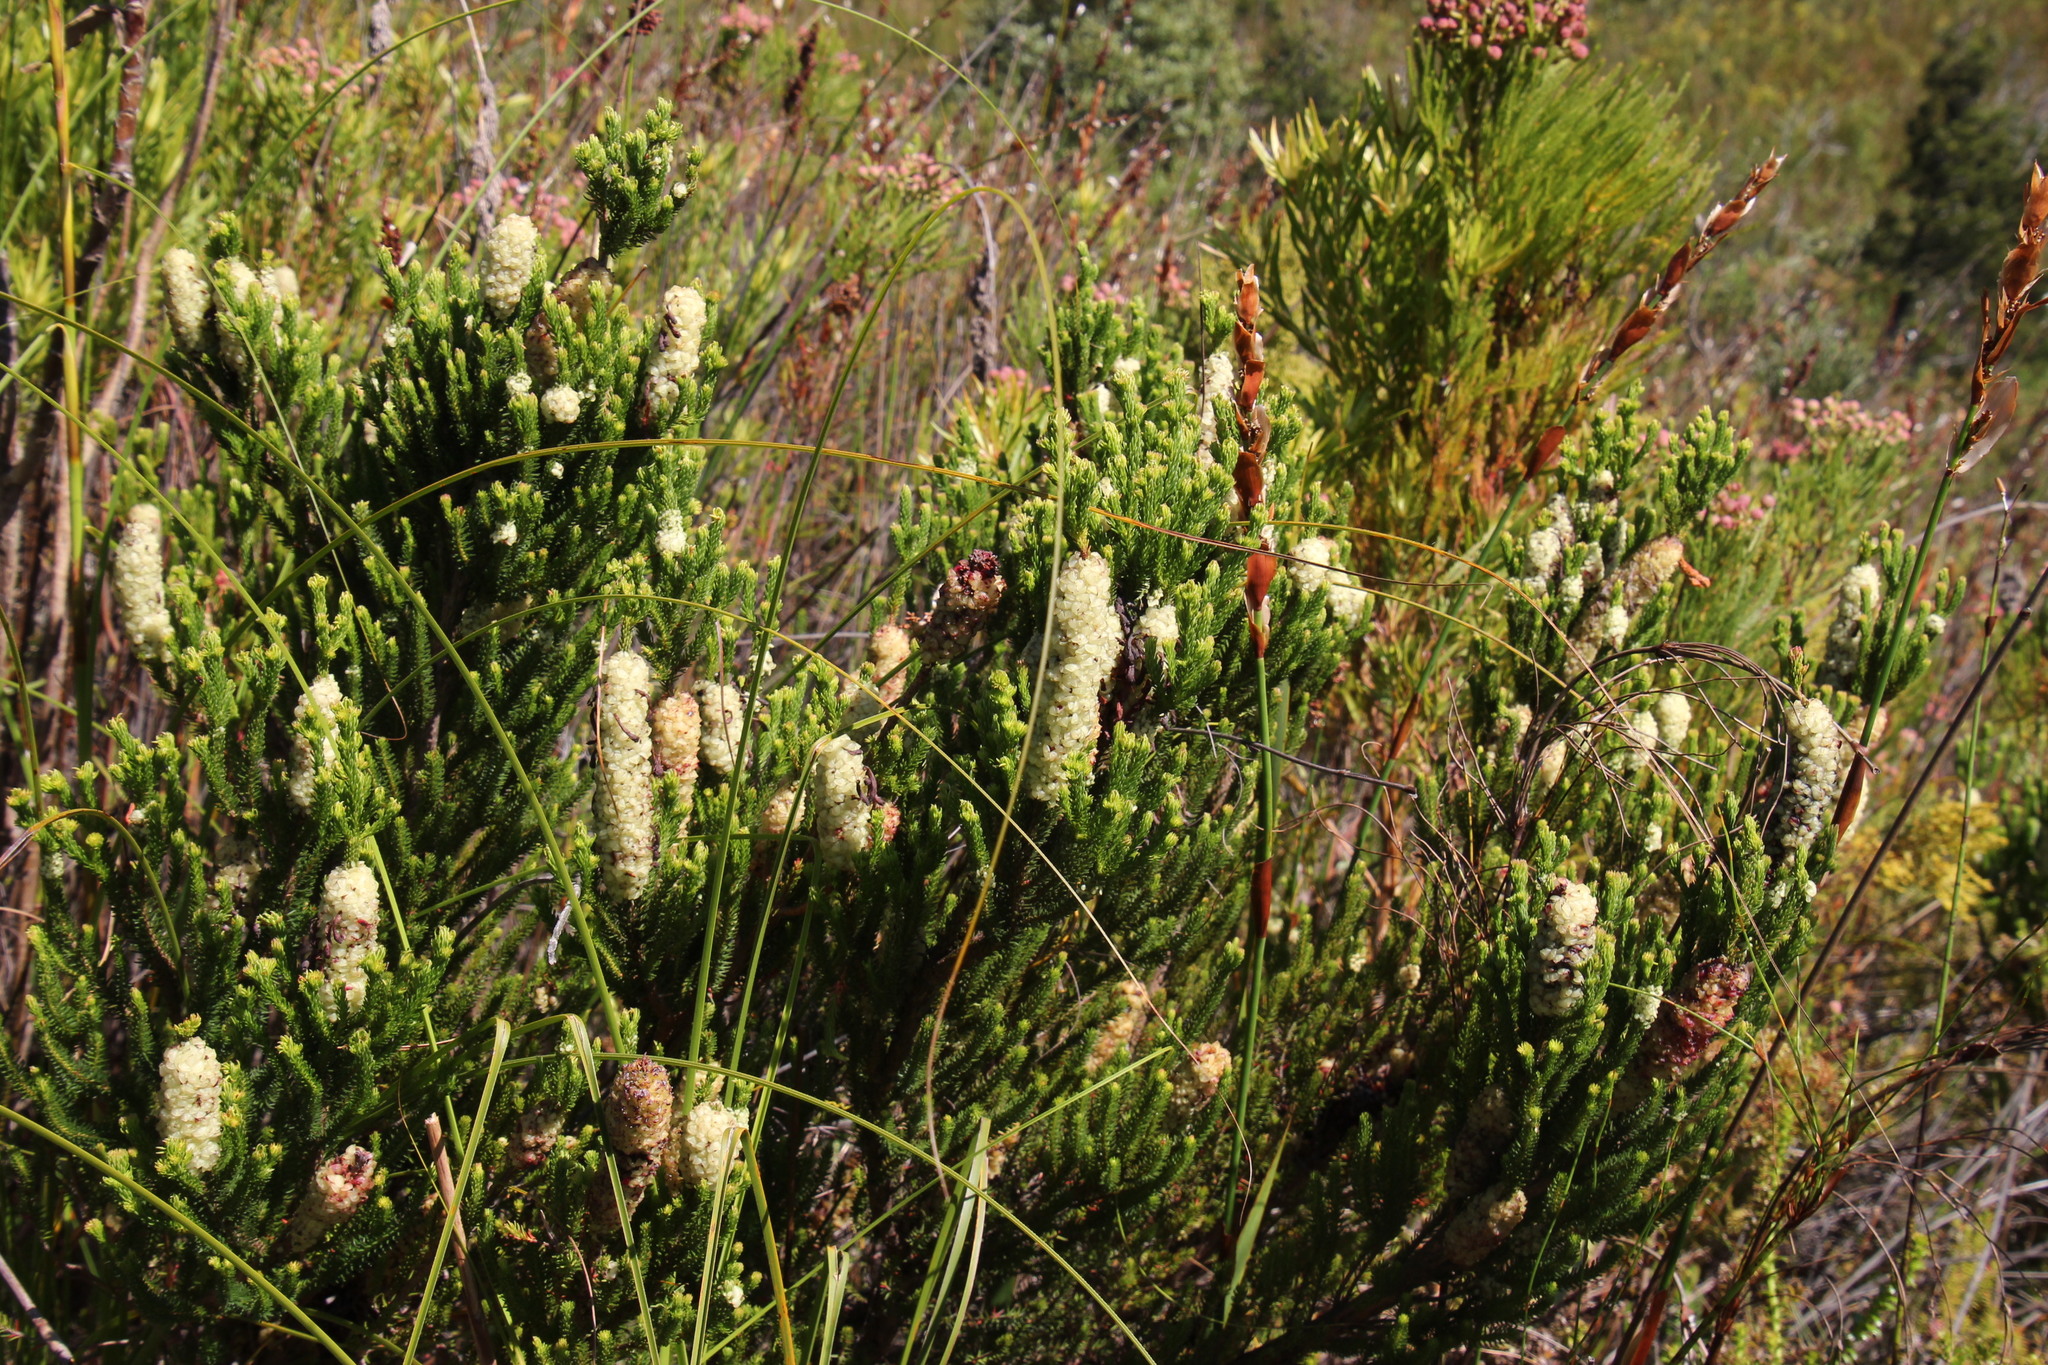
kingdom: Plantae
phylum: Tracheophyta
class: Magnoliopsida
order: Ericales
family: Ericaceae
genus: Erica
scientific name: Erica sessiliflora
